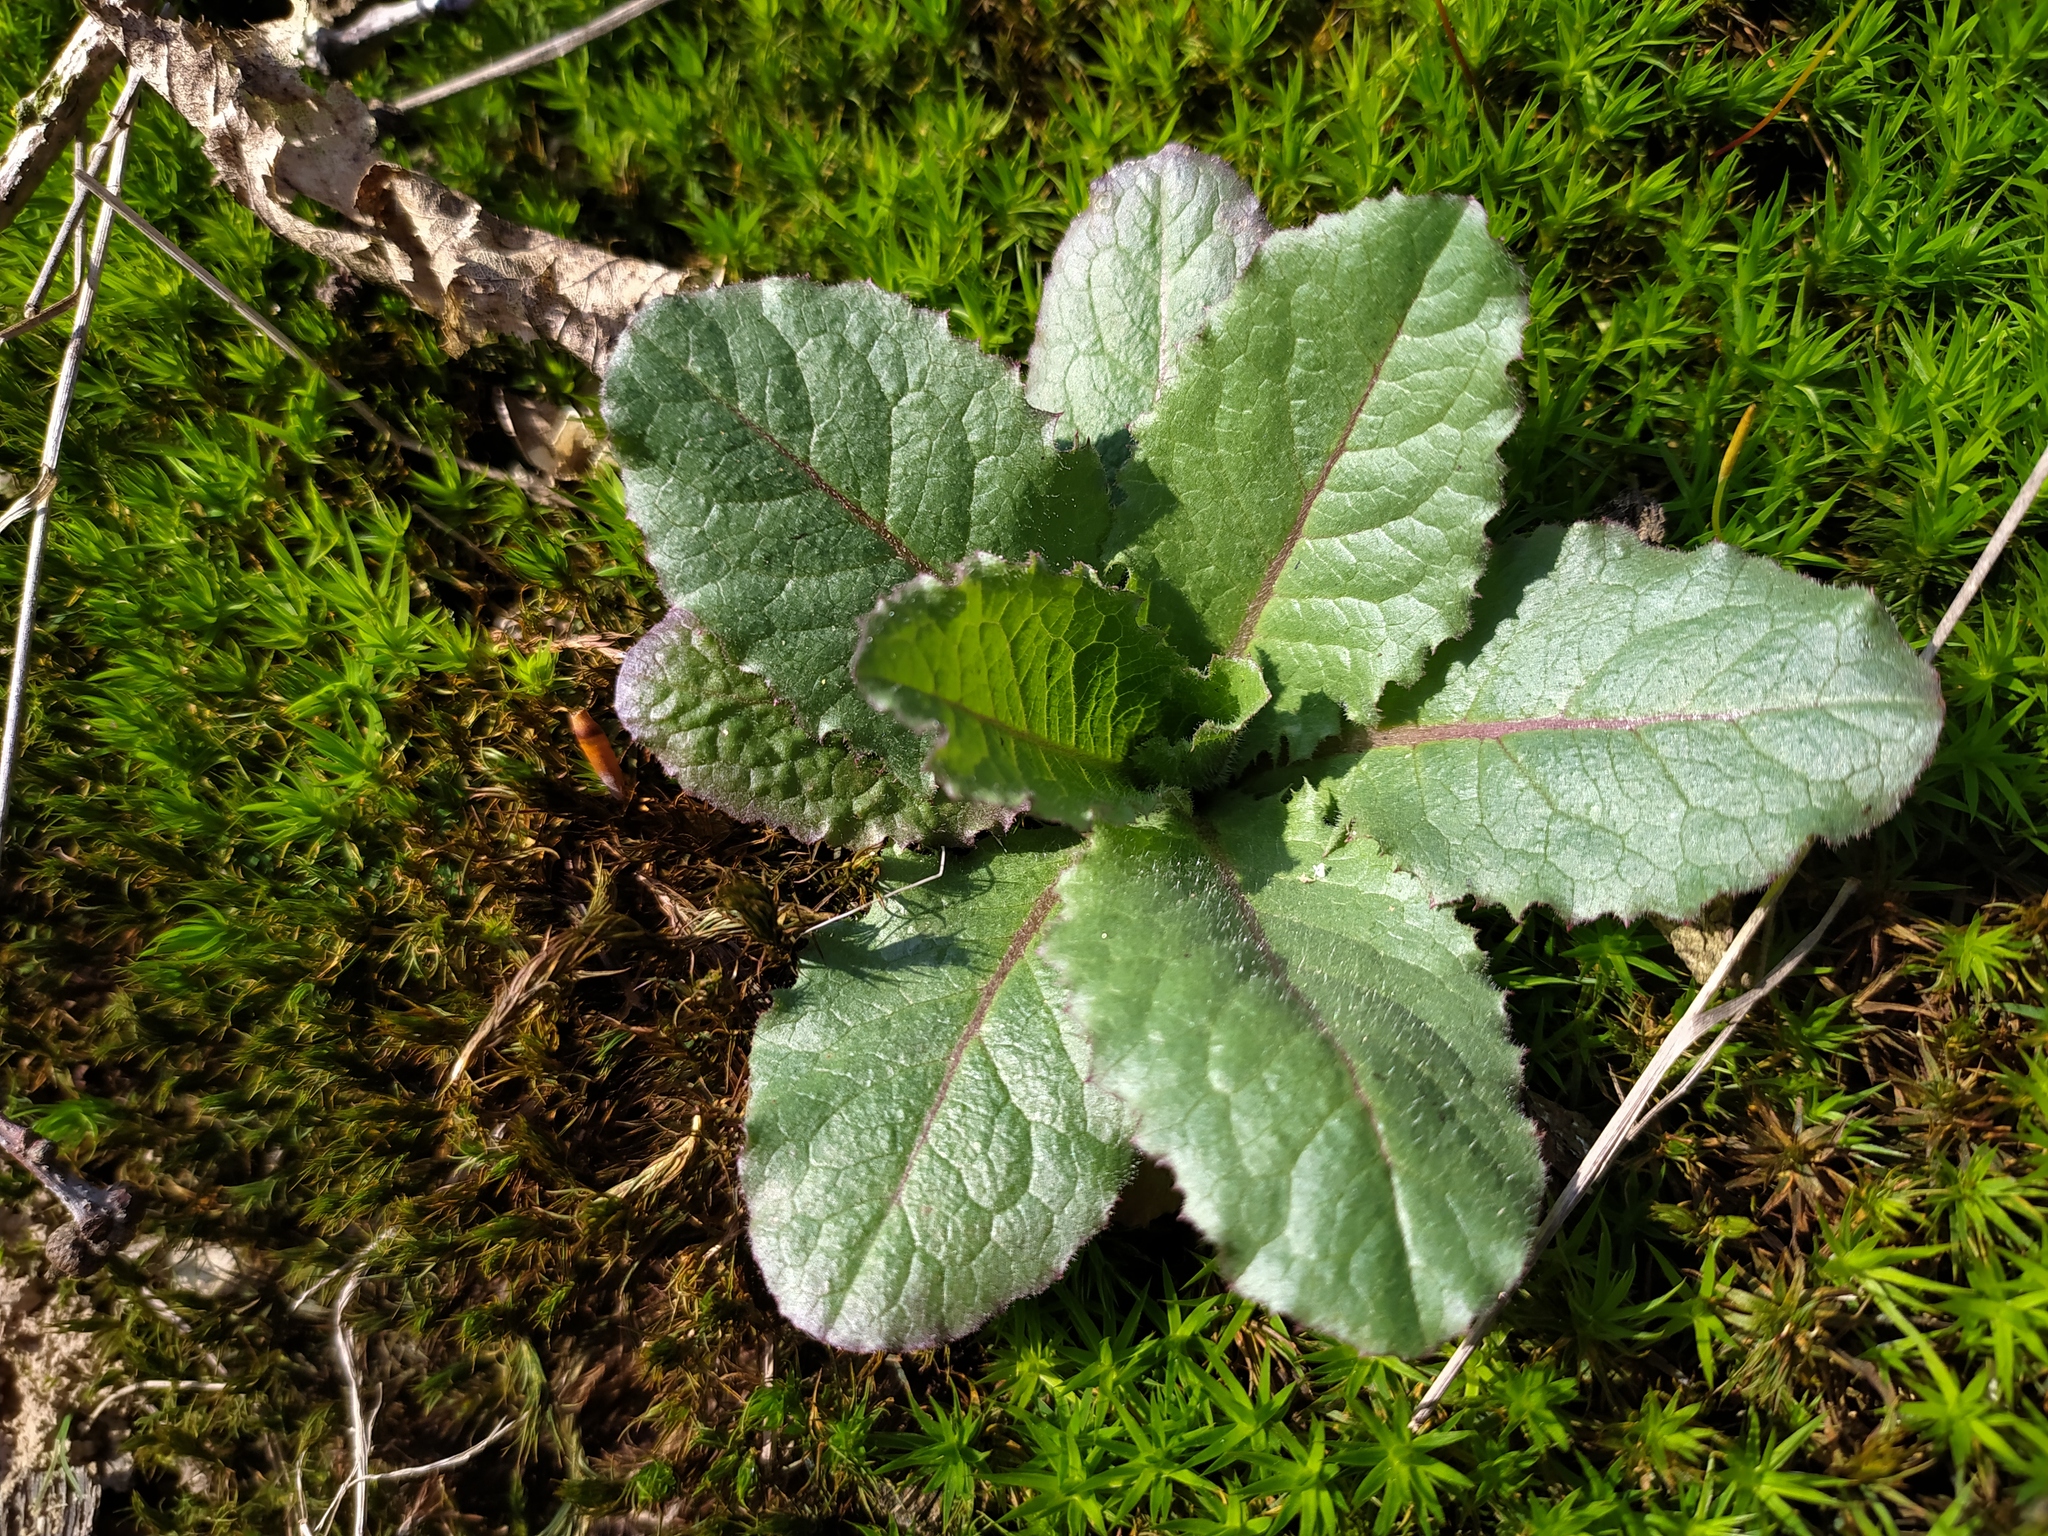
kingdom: Plantae
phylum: Tracheophyta
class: Magnoliopsida
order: Asterales
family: Asteraceae
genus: Lactuca
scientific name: Lactuca virosa
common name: Great lettuce
